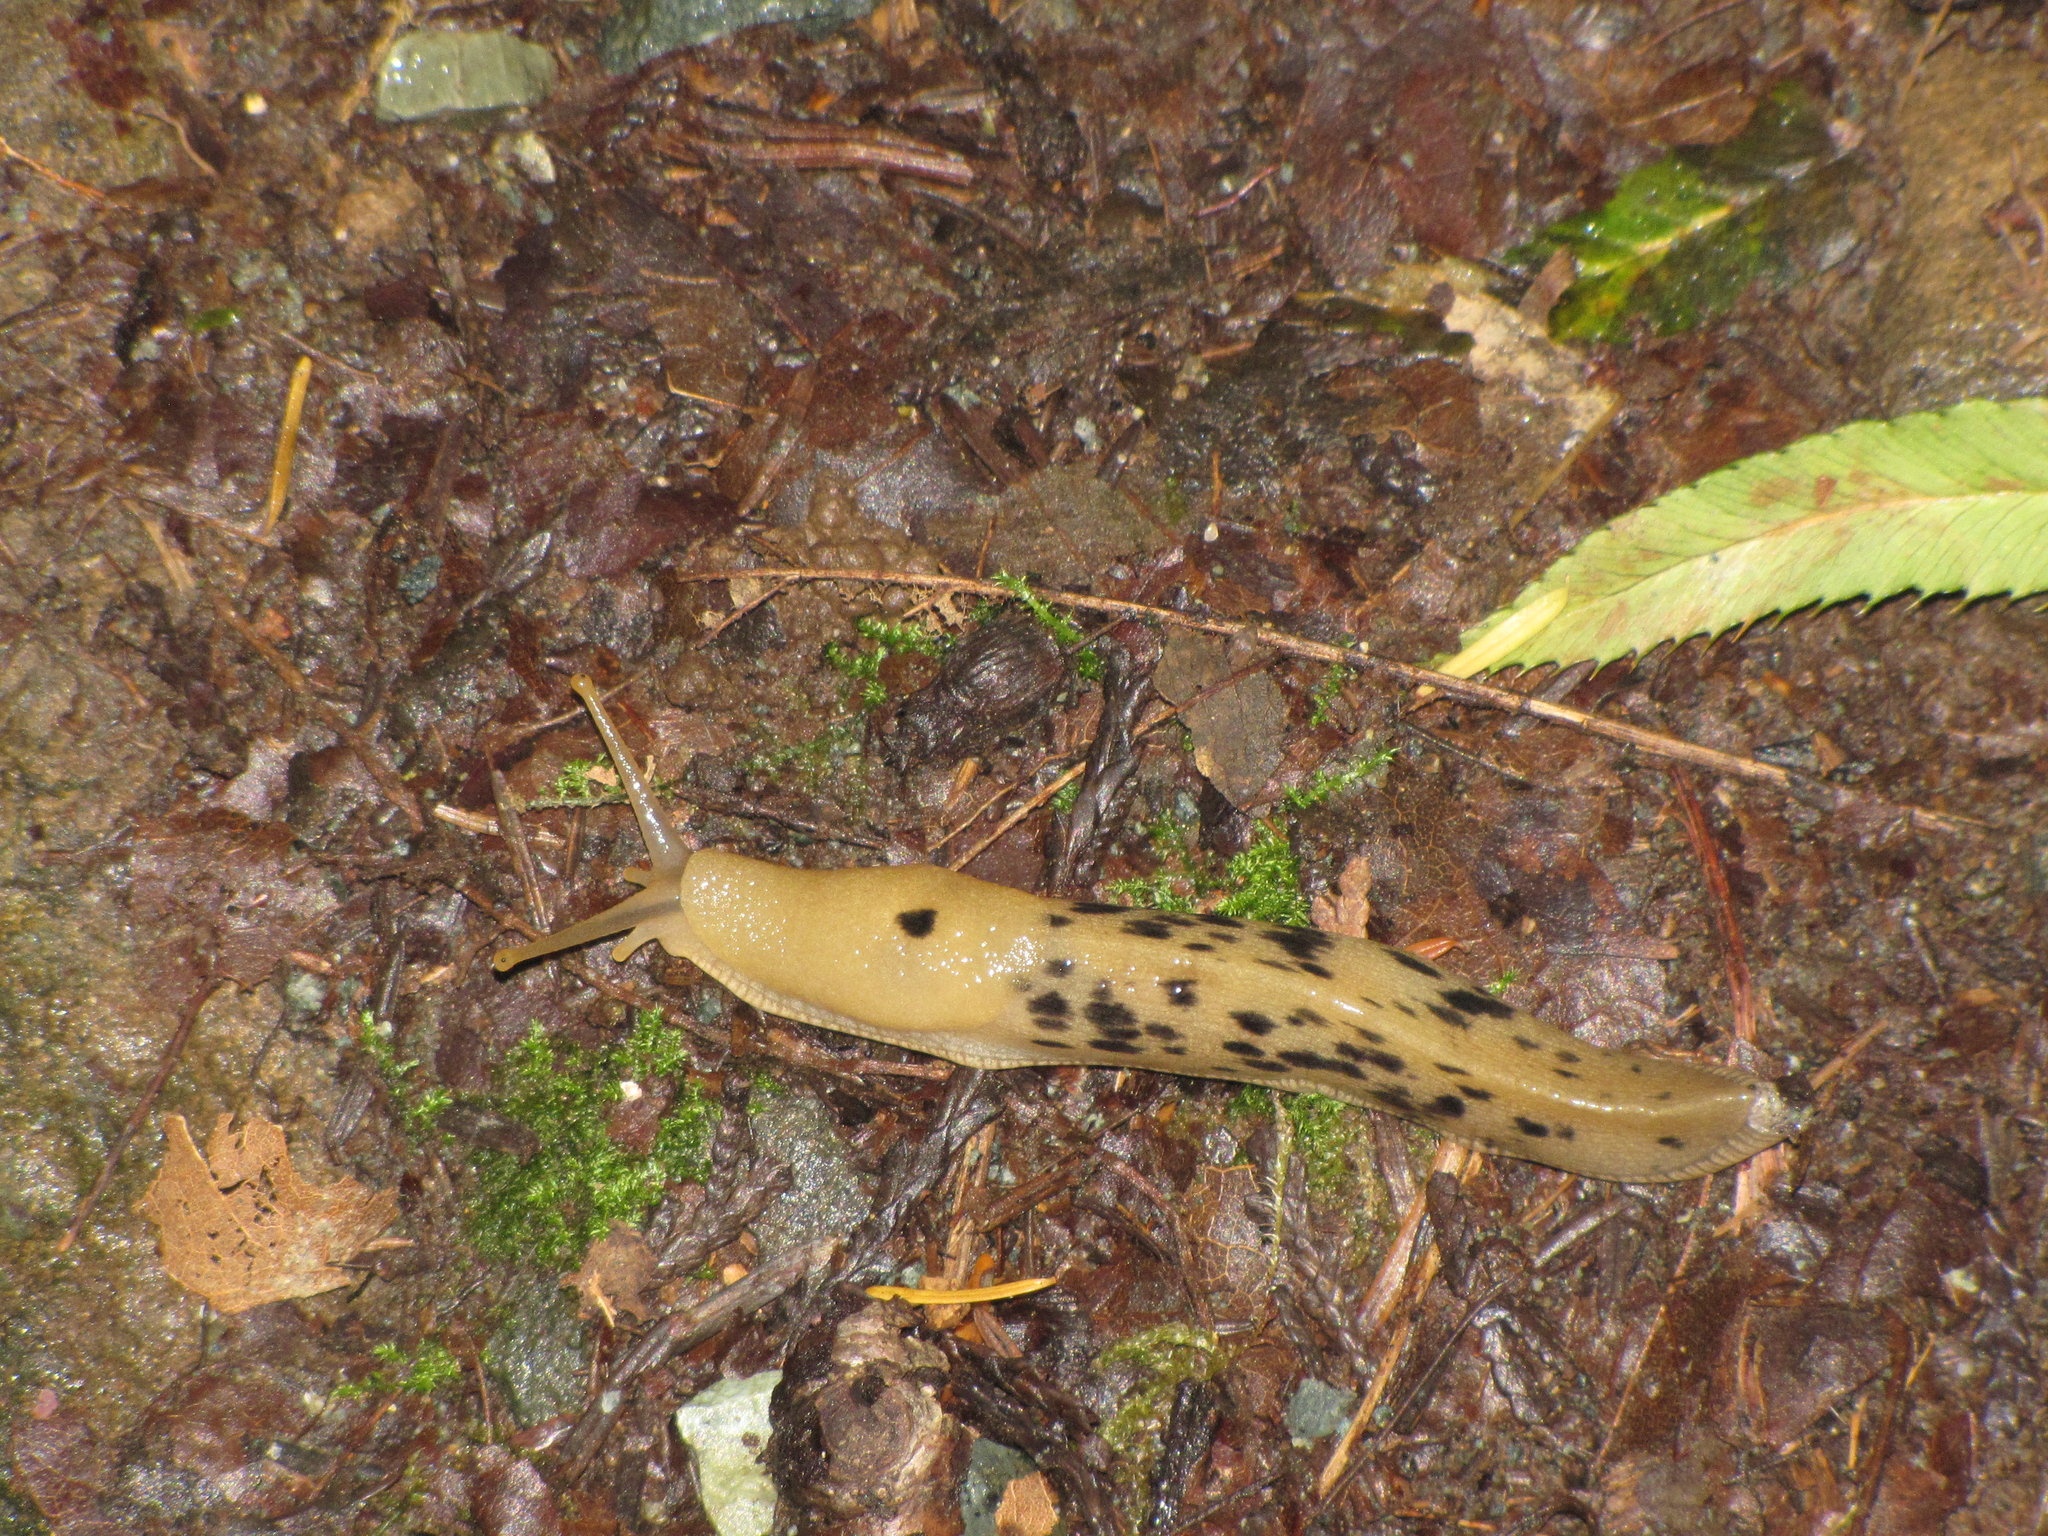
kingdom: Animalia
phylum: Mollusca
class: Gastropoda
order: Stylommatophora
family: Ariolimacidae
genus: Ariolimax
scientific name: Ariolimax columbianus
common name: Pacific banana slug
